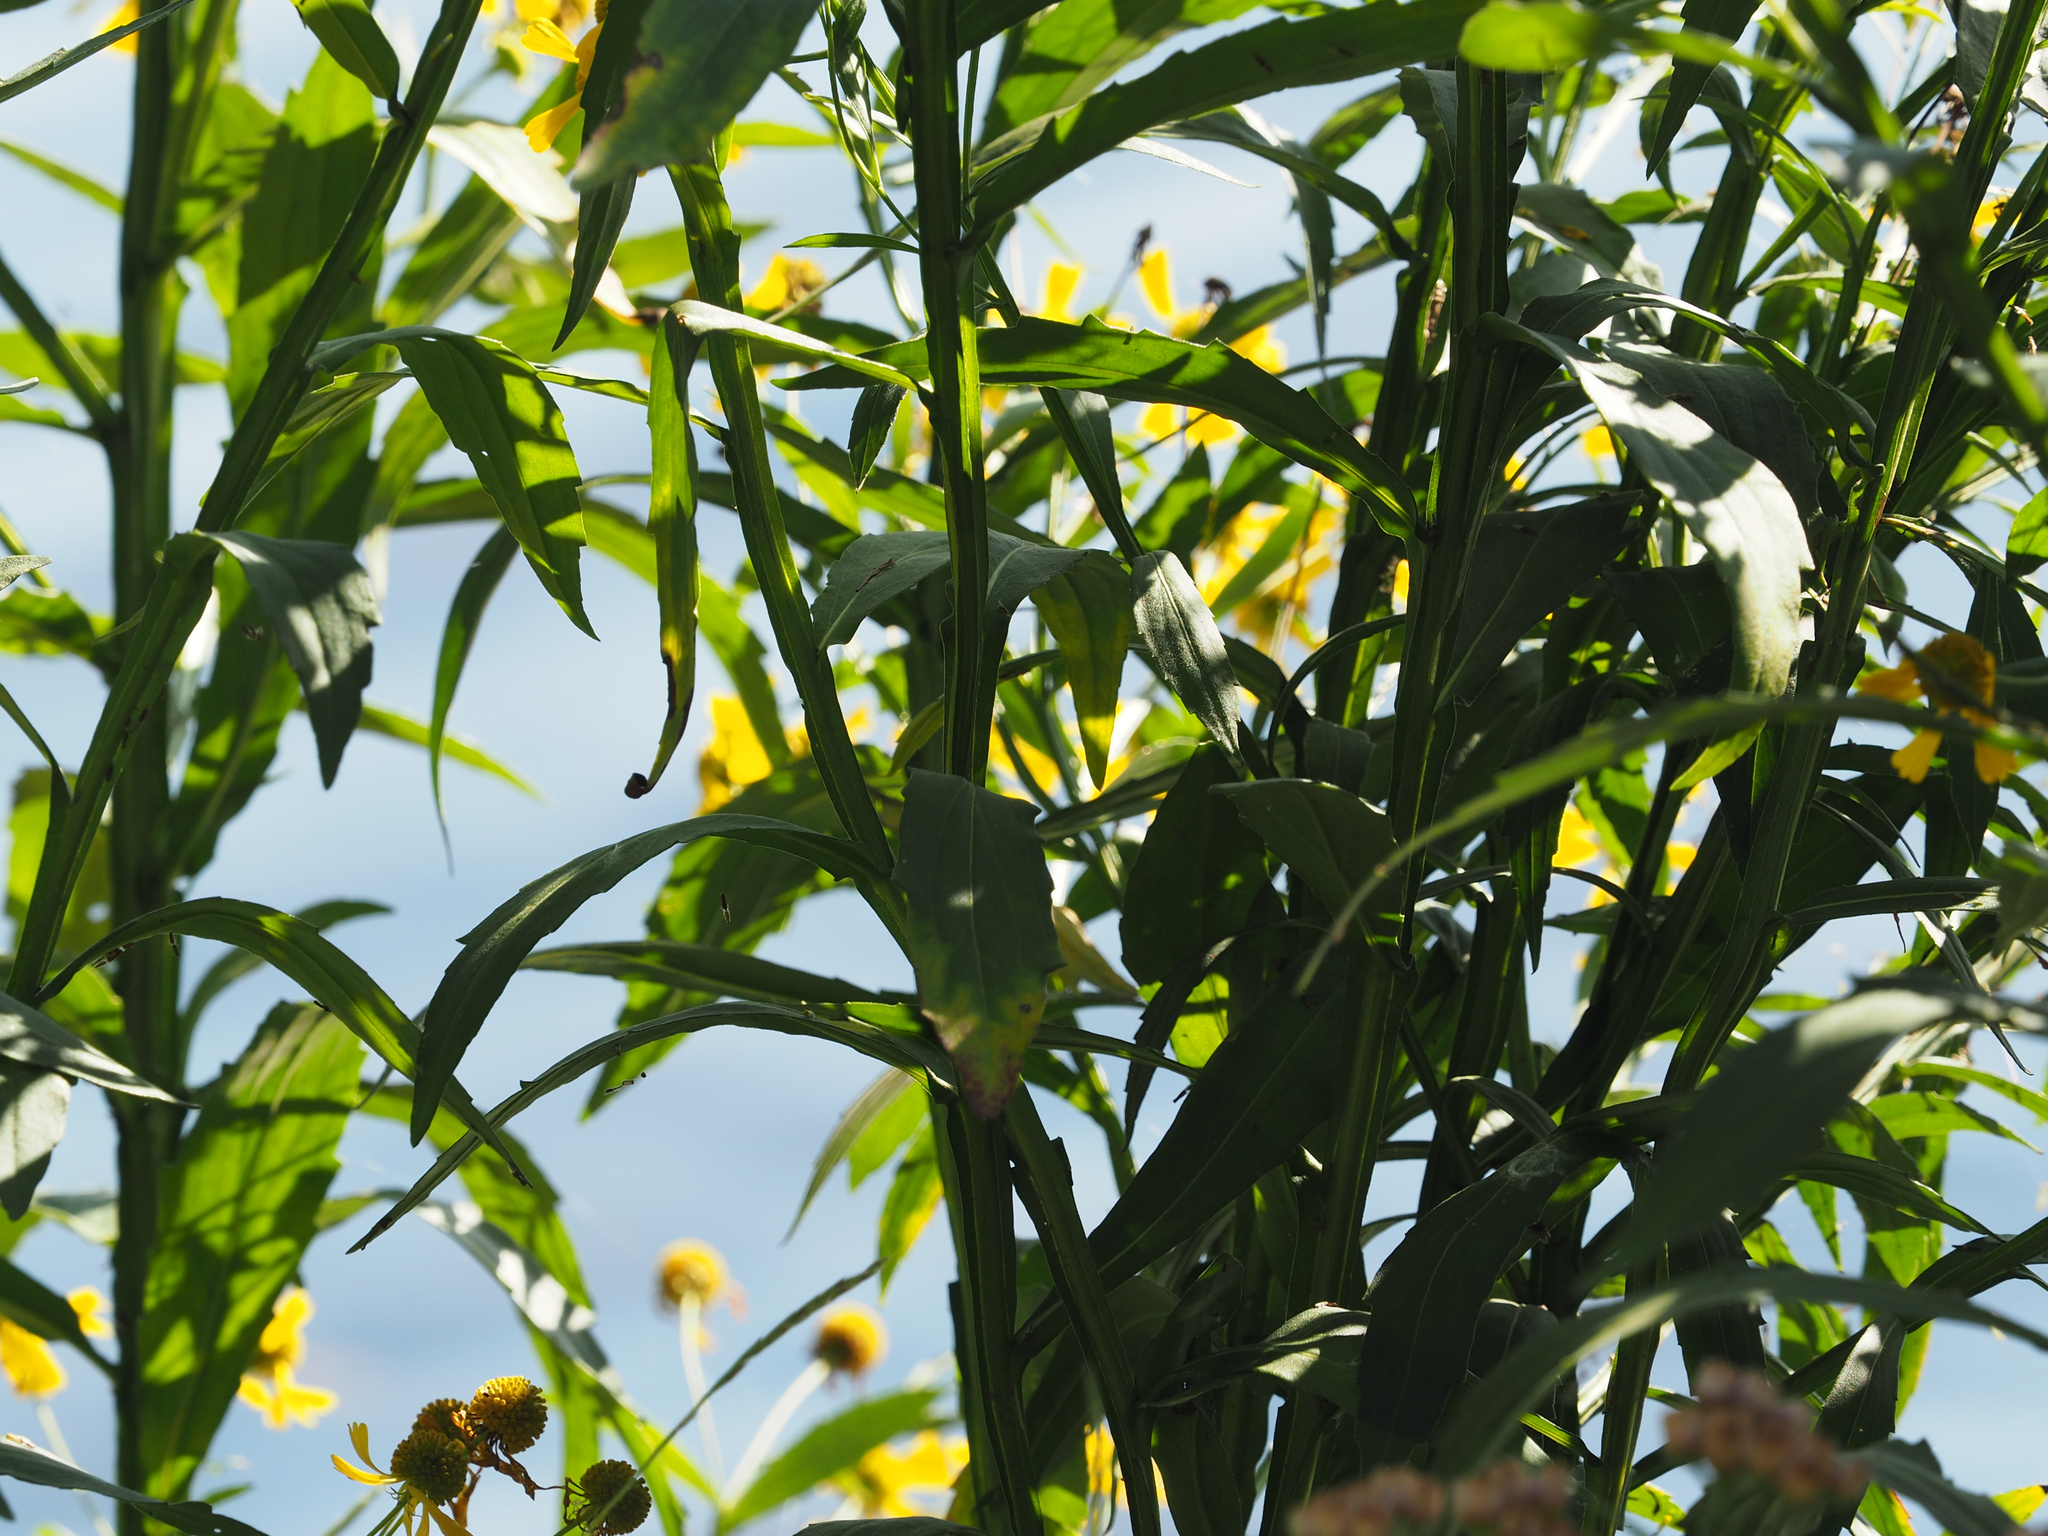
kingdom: Plantae
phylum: Tracheophyta
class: Magnoliopsida
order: Asterales
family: Asteraceae
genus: Helenium
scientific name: Helenium autumnale
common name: Sneezeweed
